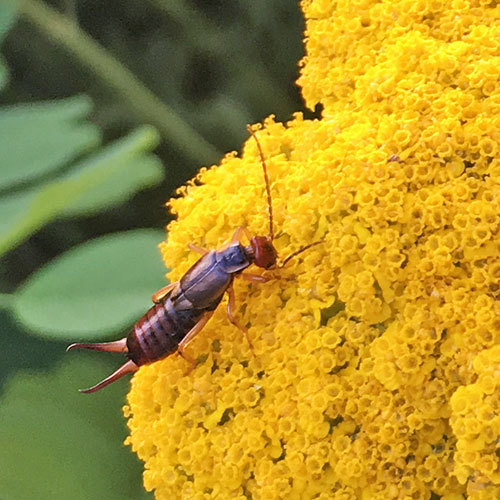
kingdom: Animalia
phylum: Arthropoda
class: Insecta
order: Dermaptera
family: Forficulidae
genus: Forficula
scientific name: Forficula
